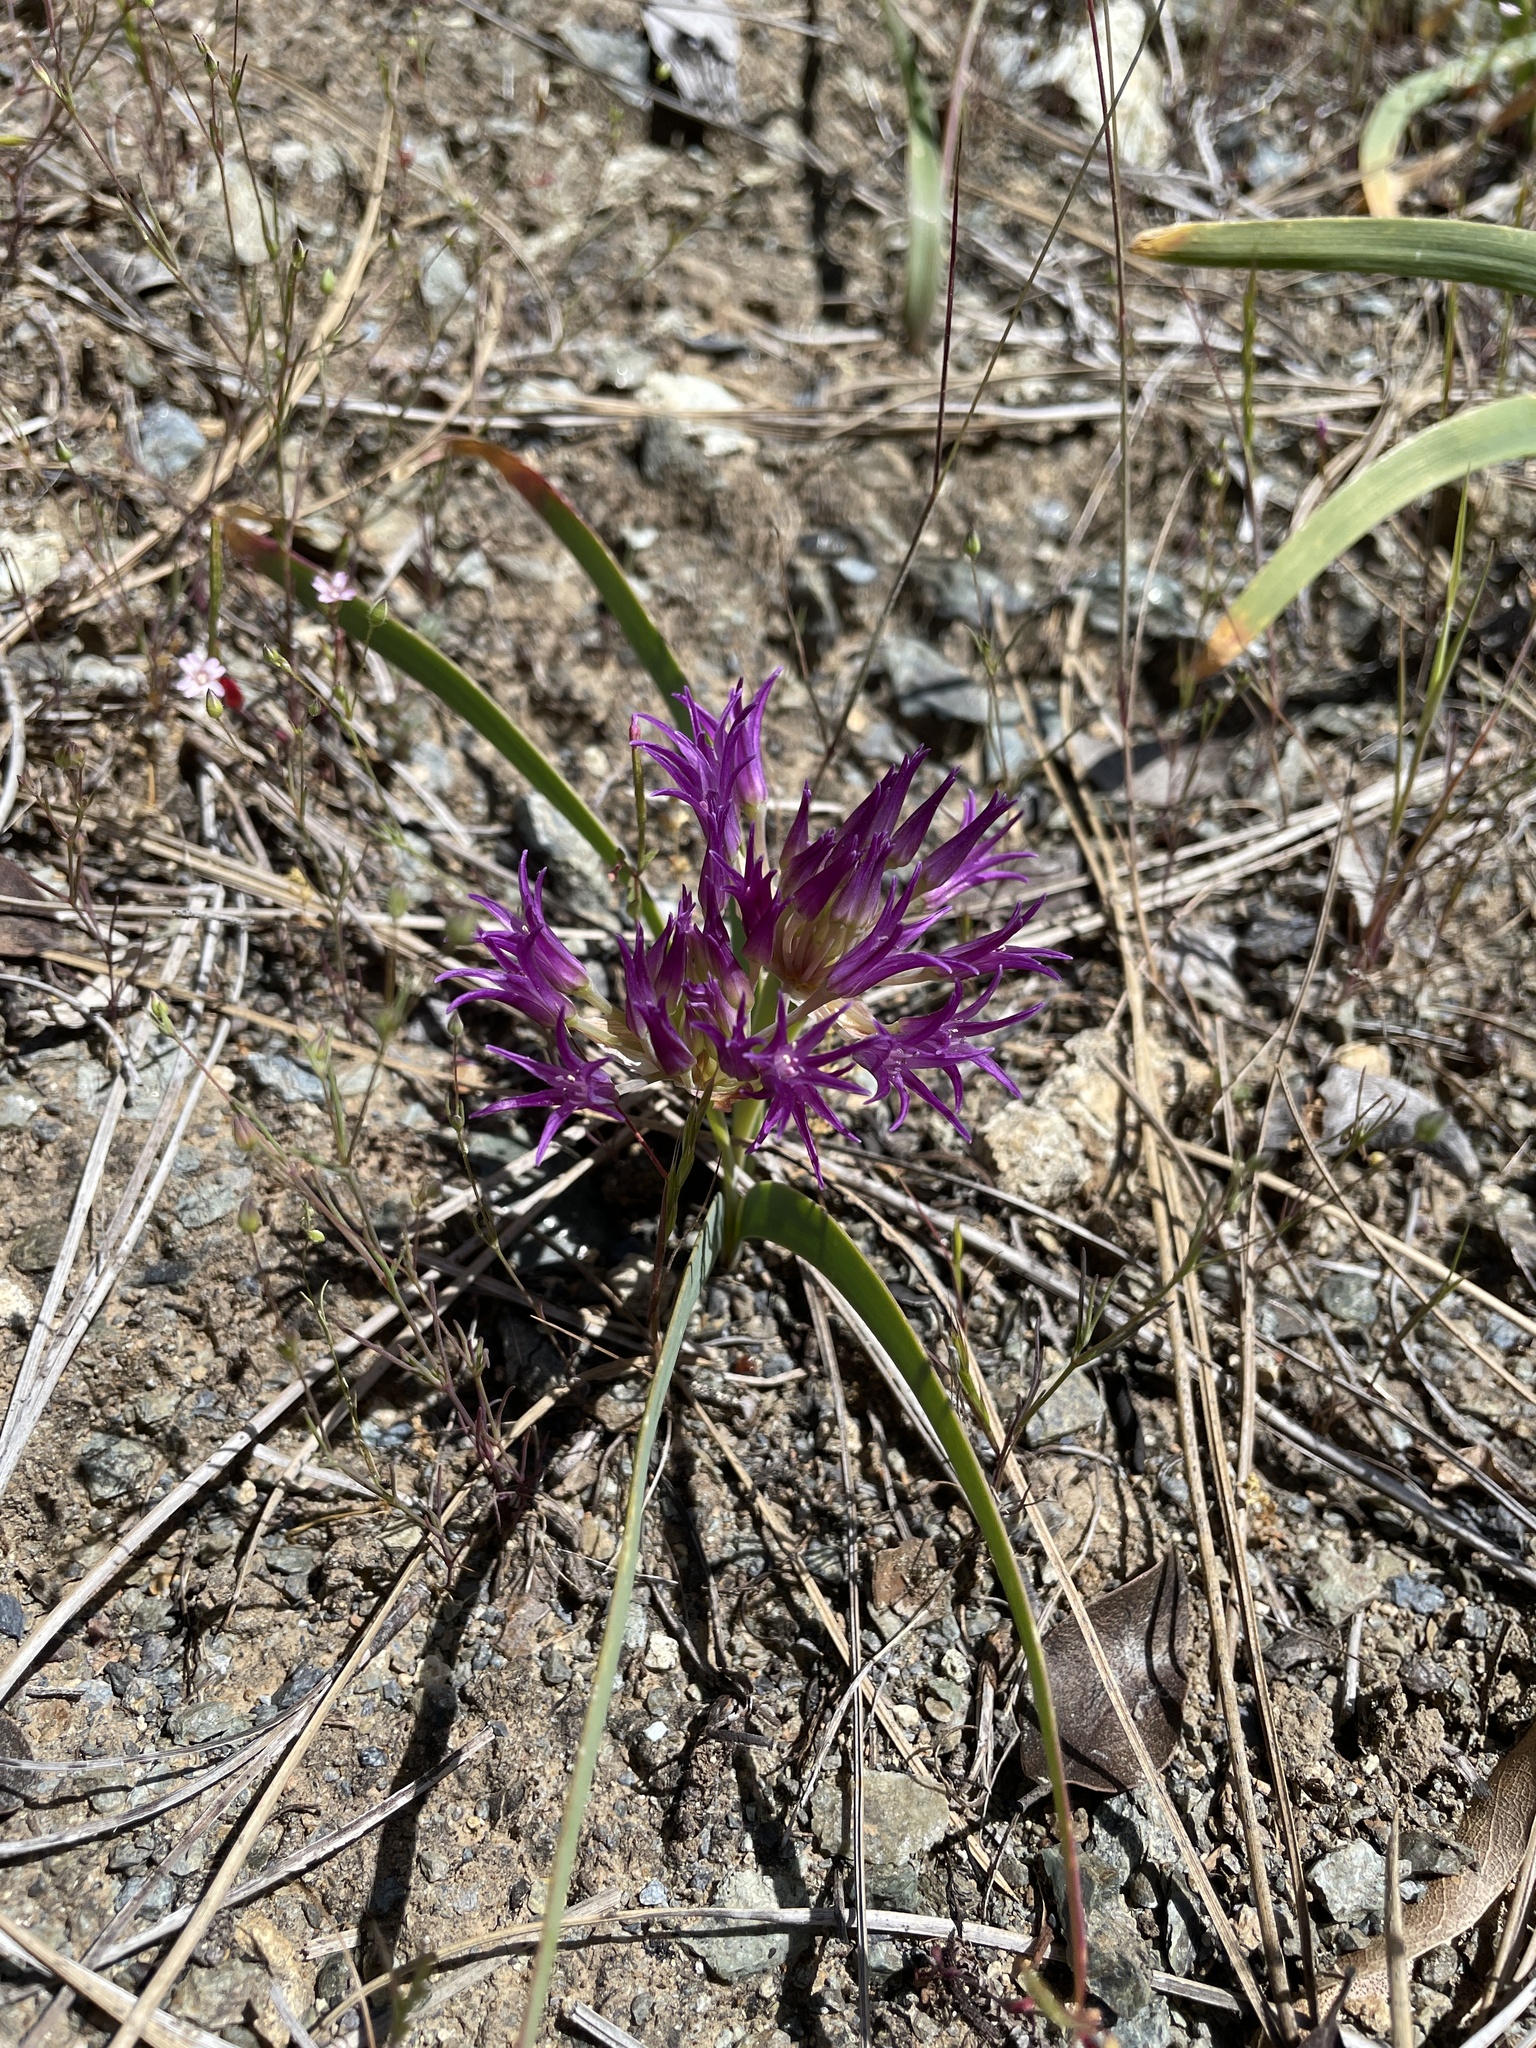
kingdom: Plantae
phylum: Tracheophyta
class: Liliopsida
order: Asparagales
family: Amaryllidaceae
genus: Allium
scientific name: Allium falcifolium
